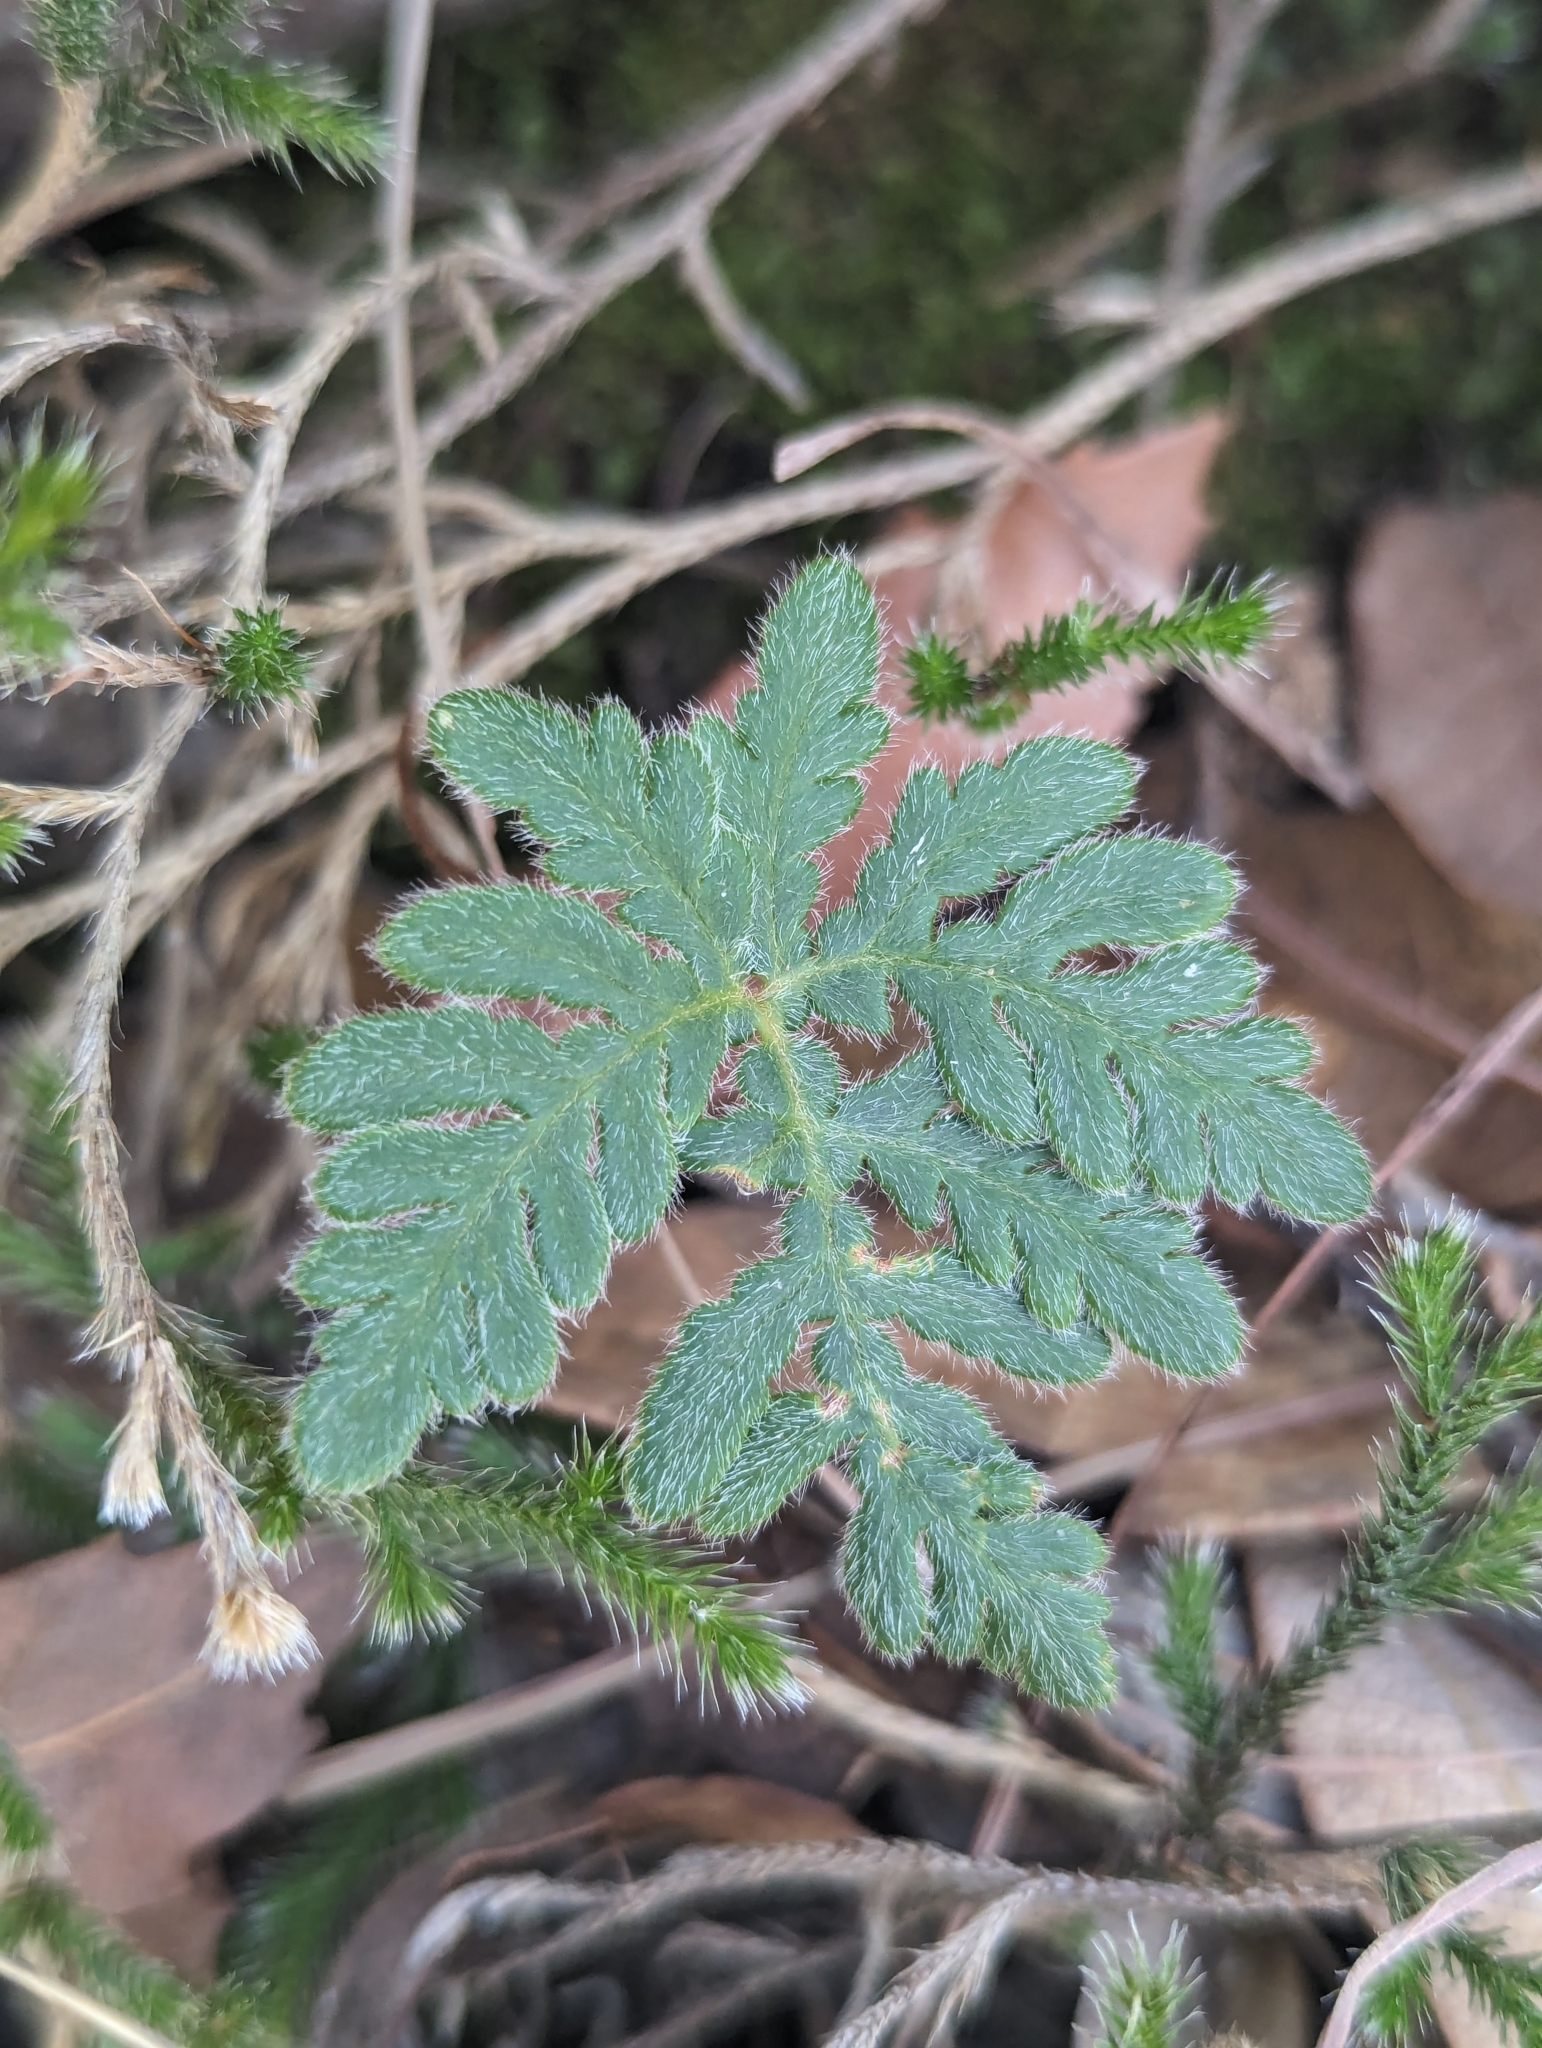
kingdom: Plantae
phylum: Tracheophyta
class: Polypodiopsida
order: Polypodiales
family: Pteridaceae
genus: Bommeria
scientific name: Bommeria hispida
